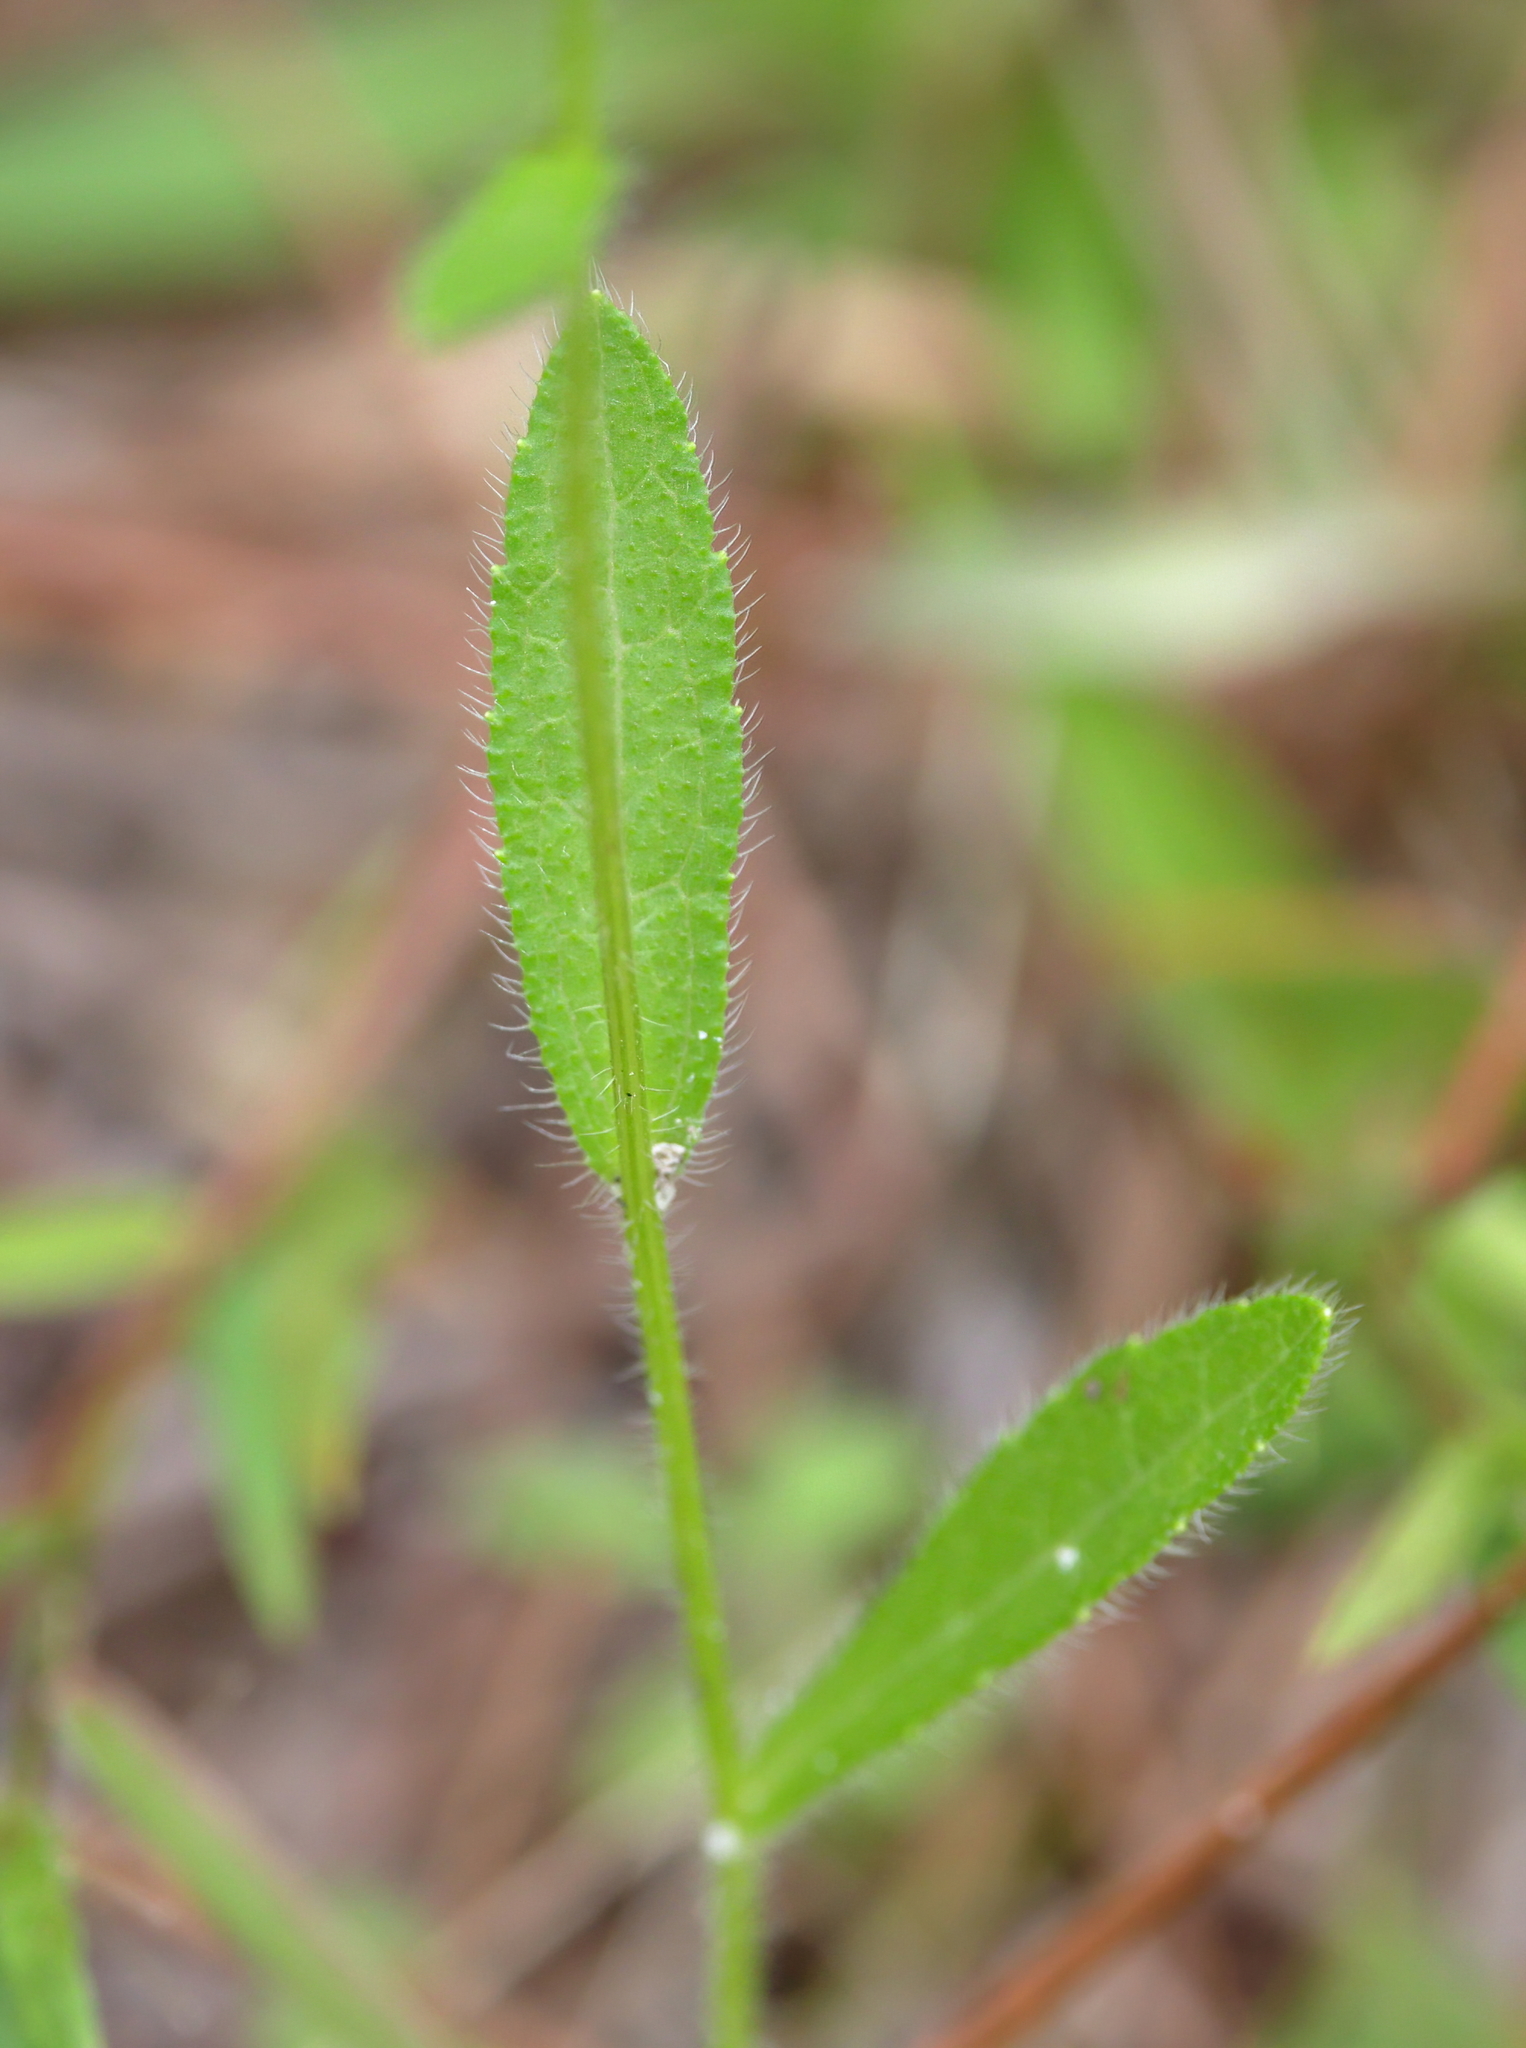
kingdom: Plantae
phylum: Tracheophyta
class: Magnoliopsida
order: Asterales
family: Asteraceae
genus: Rudbeckia
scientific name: Rudbeckia hirta
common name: Black-eyed-susan
